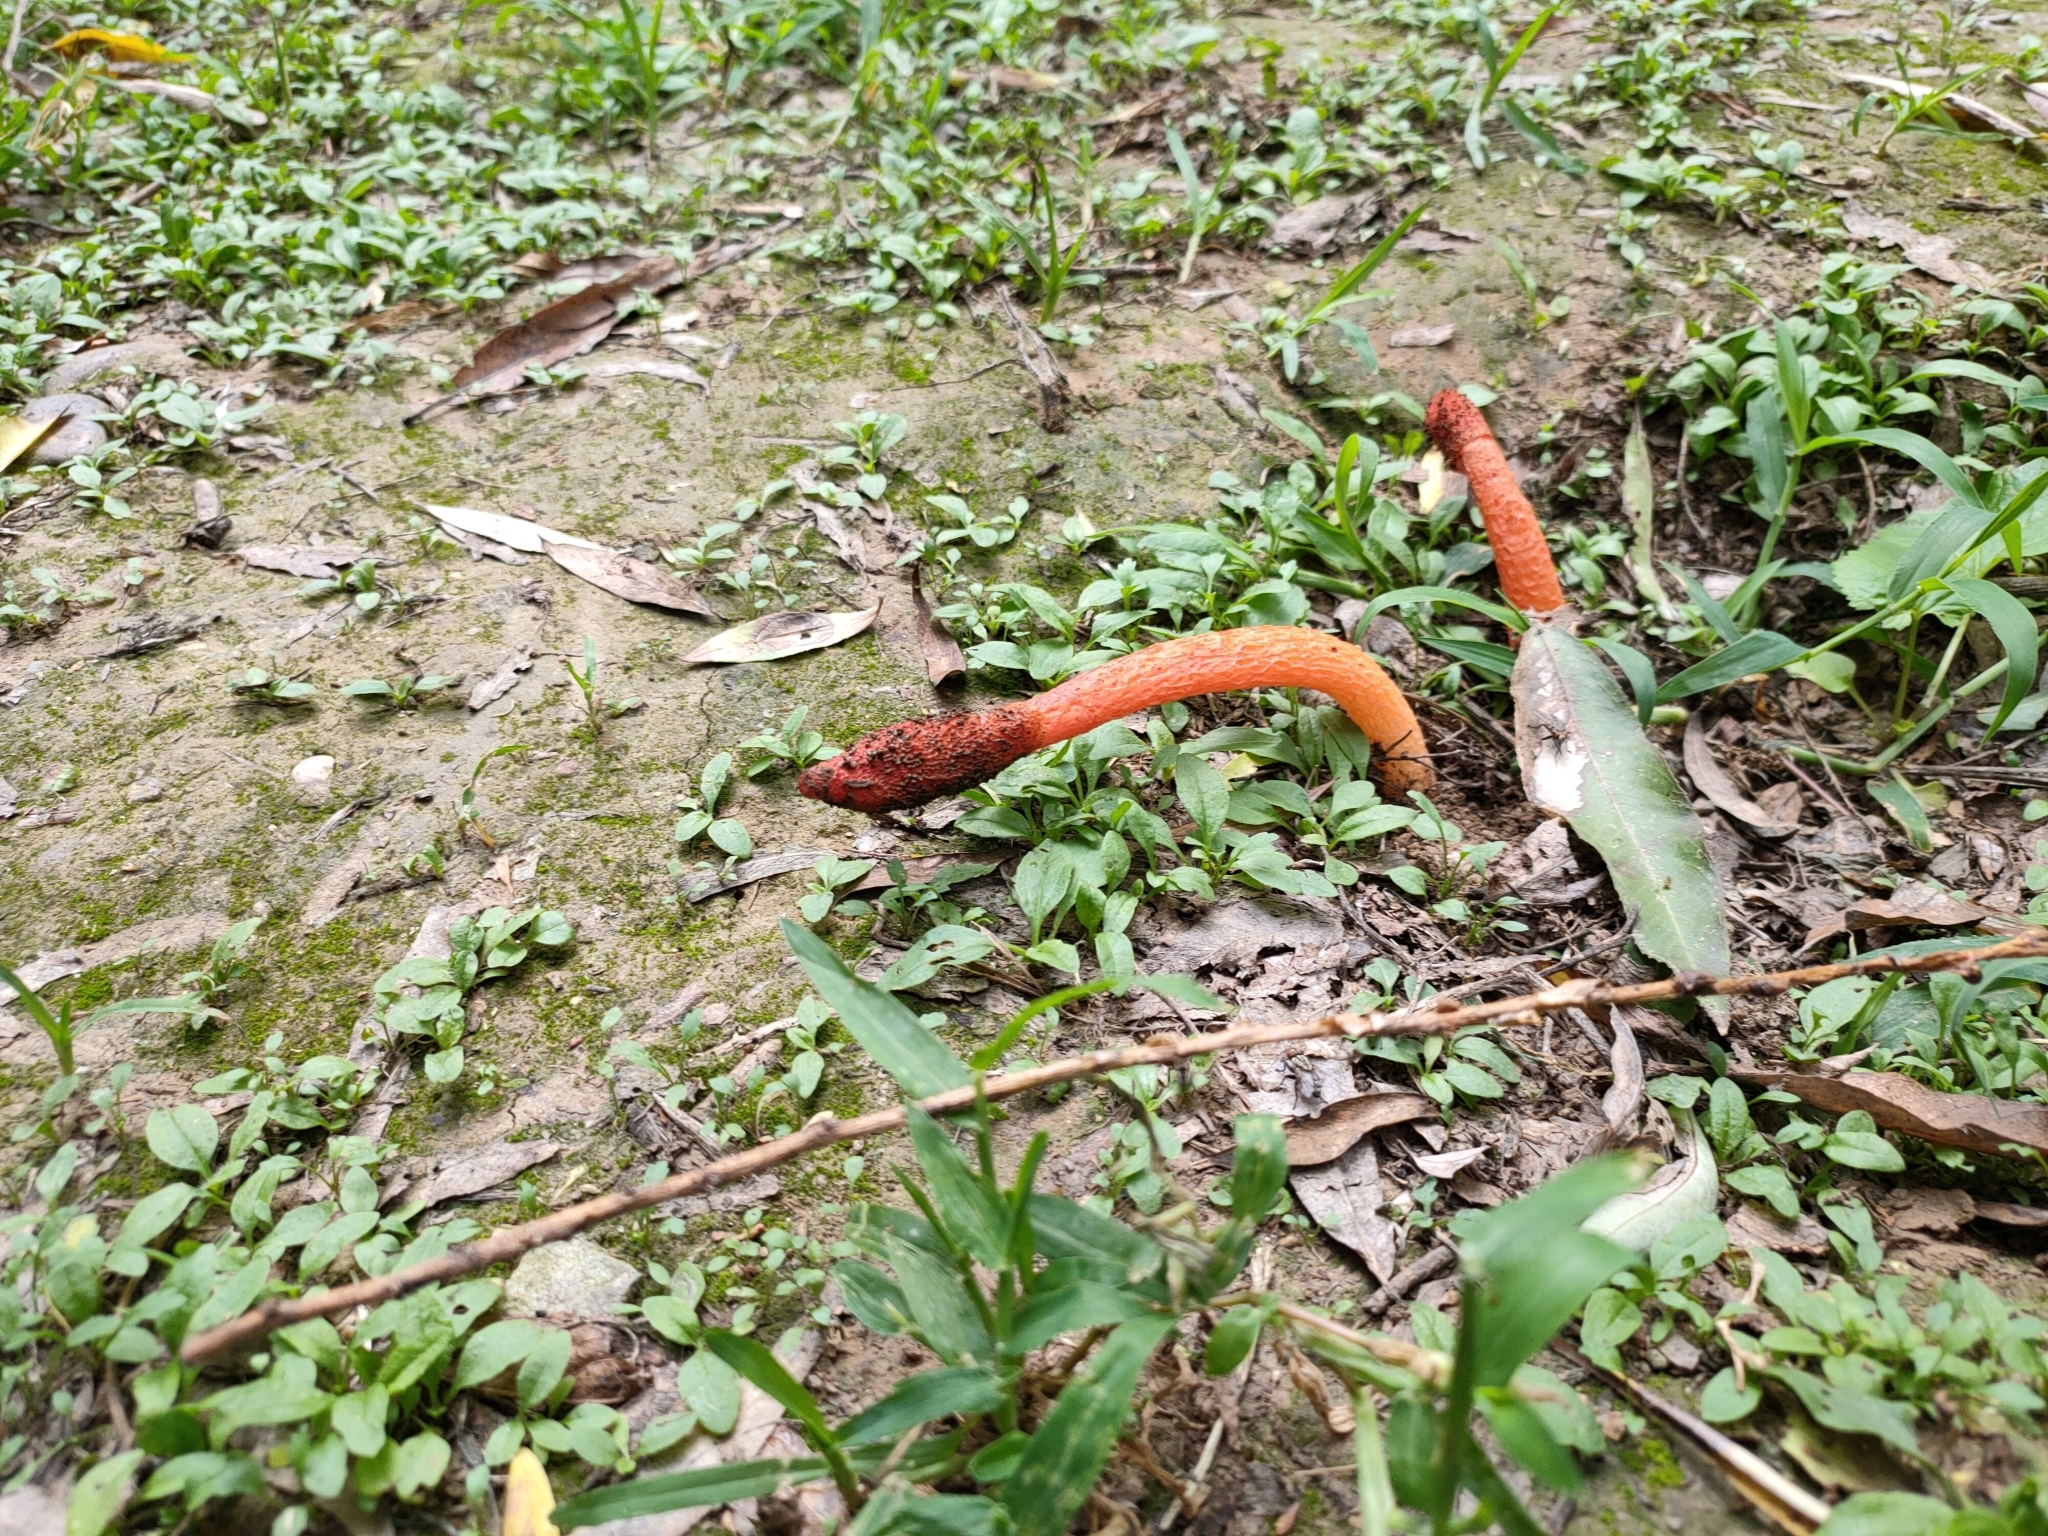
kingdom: Fungi
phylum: Basidiomycota
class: Agaricomycetes
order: Phallales
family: Phallaceae
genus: Phallus
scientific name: Phallus rugulosus
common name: Wrinkly stinkhorn
